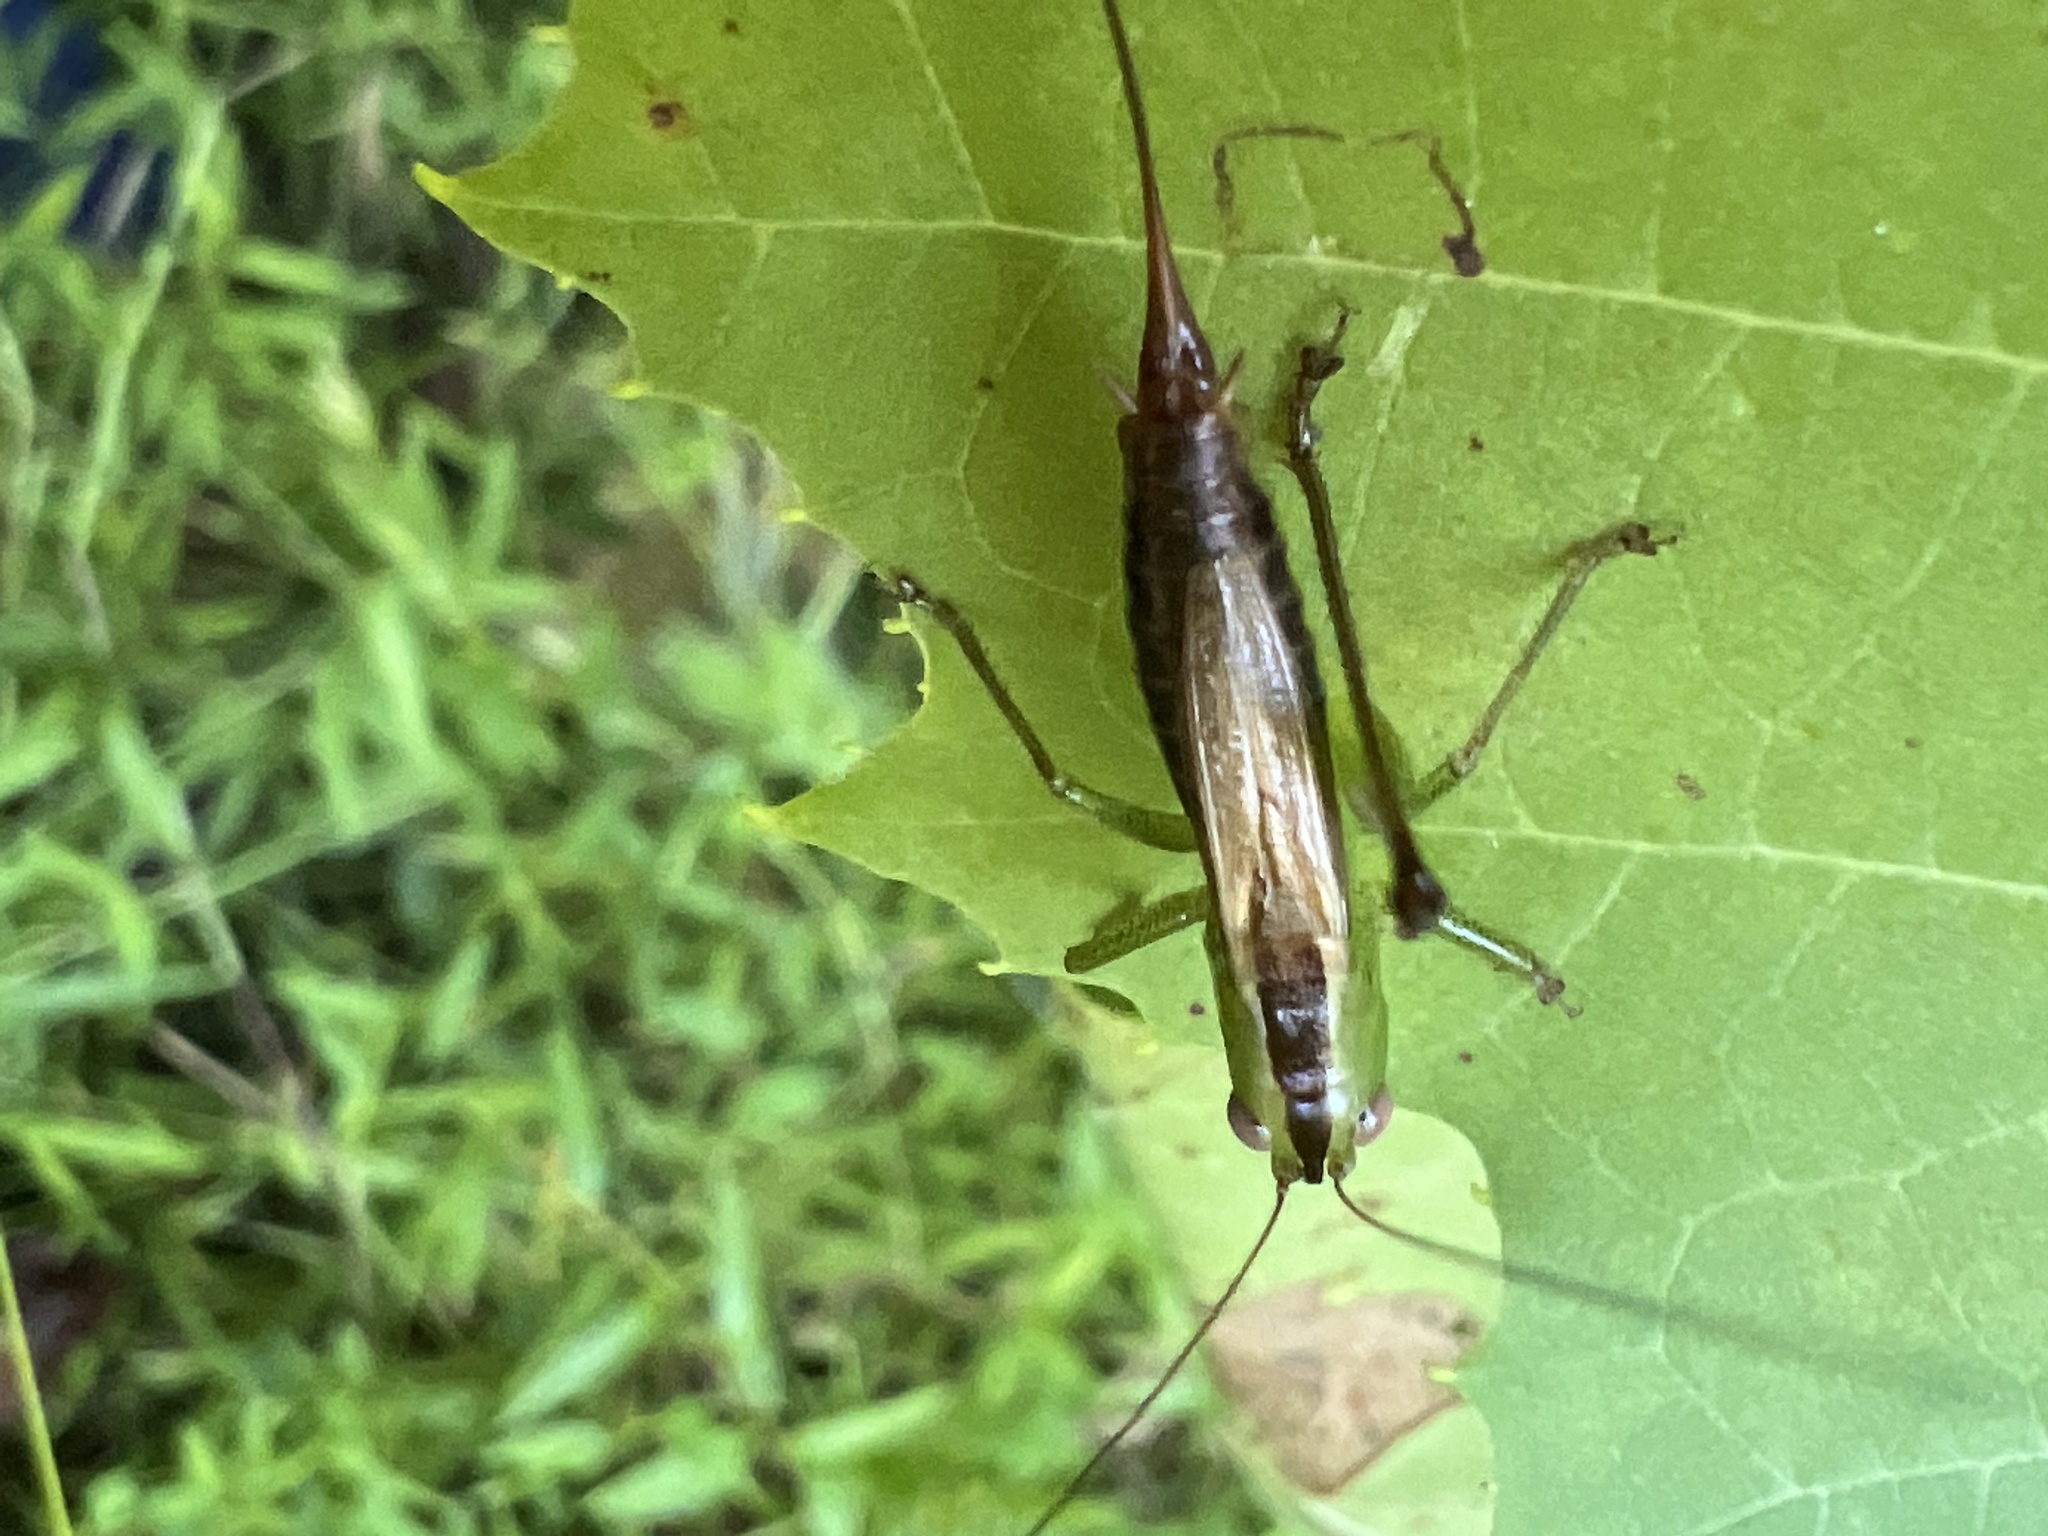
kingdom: Animalia
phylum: Arthropoda
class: Insecta
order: Orthoptera
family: Tettigoniidae
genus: Conocephalus
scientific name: Conocephalus brevipennis
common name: Short-winged meadow katydid
